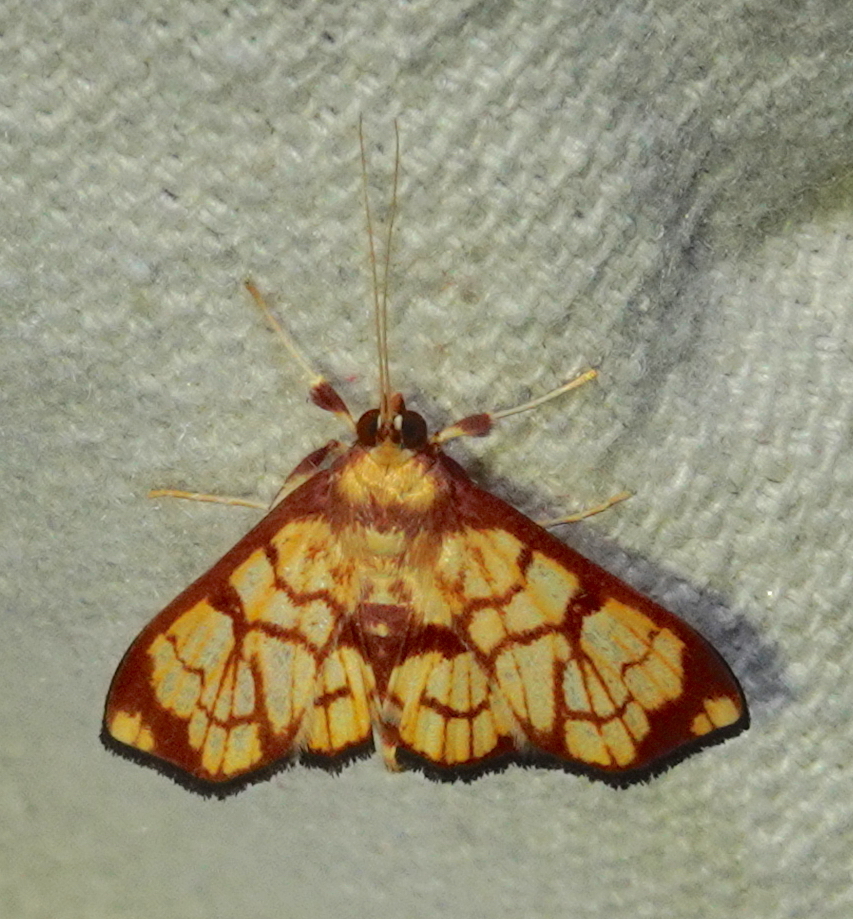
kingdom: Animalia
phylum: Arthropoda
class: Insecta
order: Lepidoptera
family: Crambidae
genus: Chalcidoptera
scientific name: Chalcidoptera emissalis
